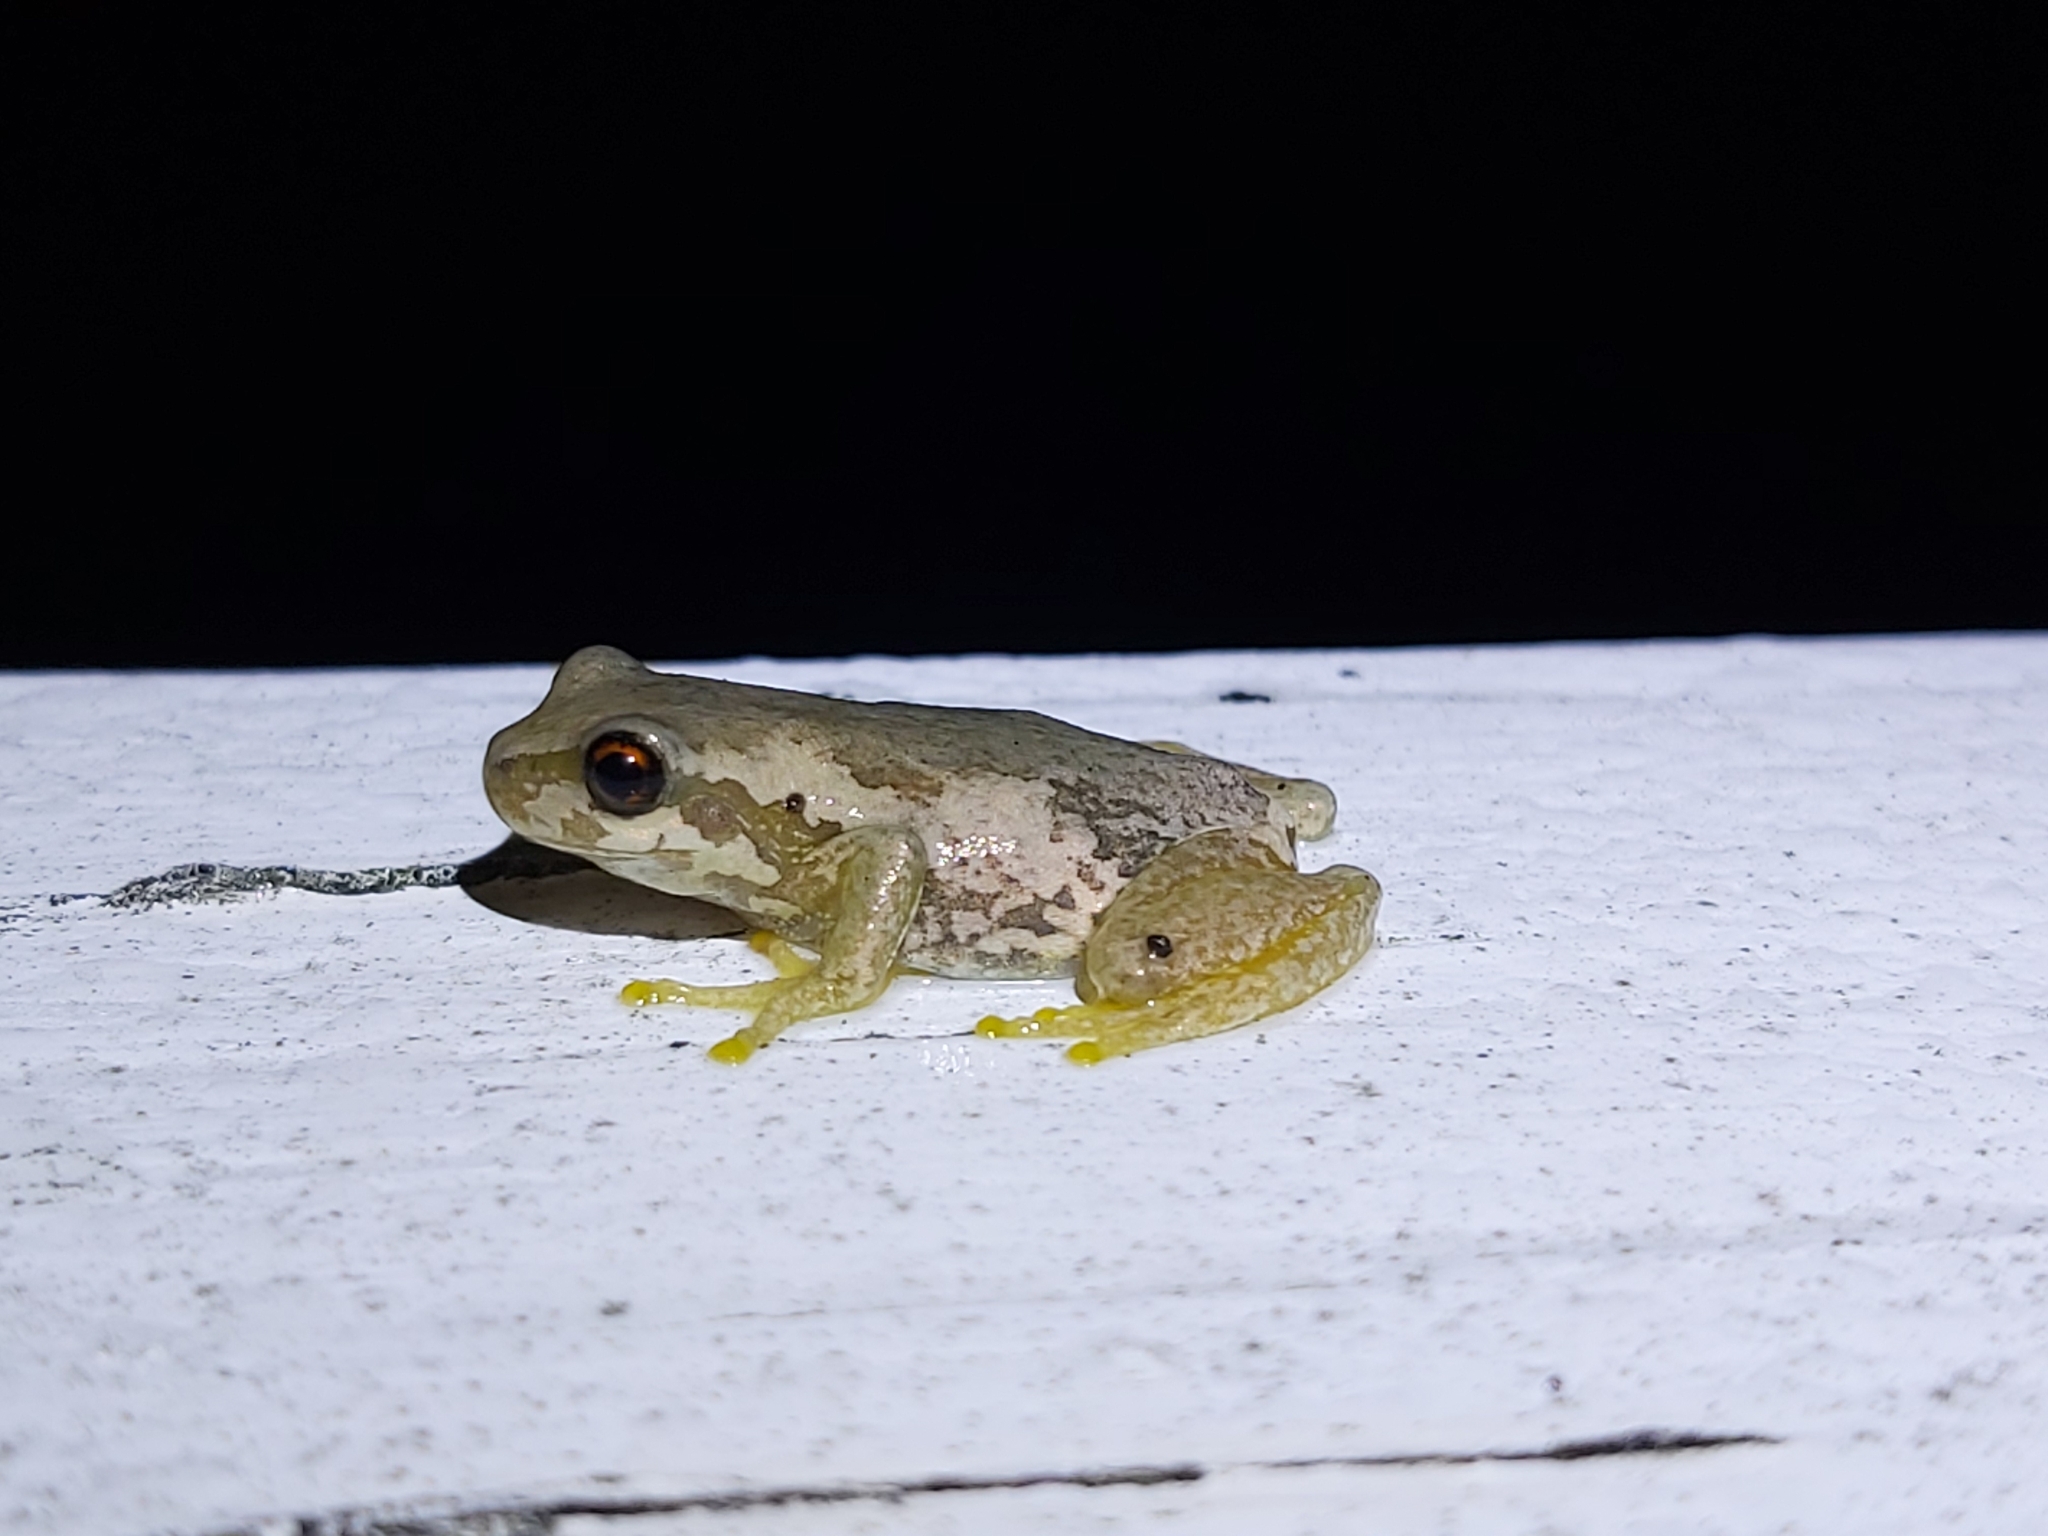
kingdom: Animalia
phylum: Chordata
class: Amphibia
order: Anura
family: Pelodryadidae
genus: Litoria
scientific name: Litoria quiritatus
